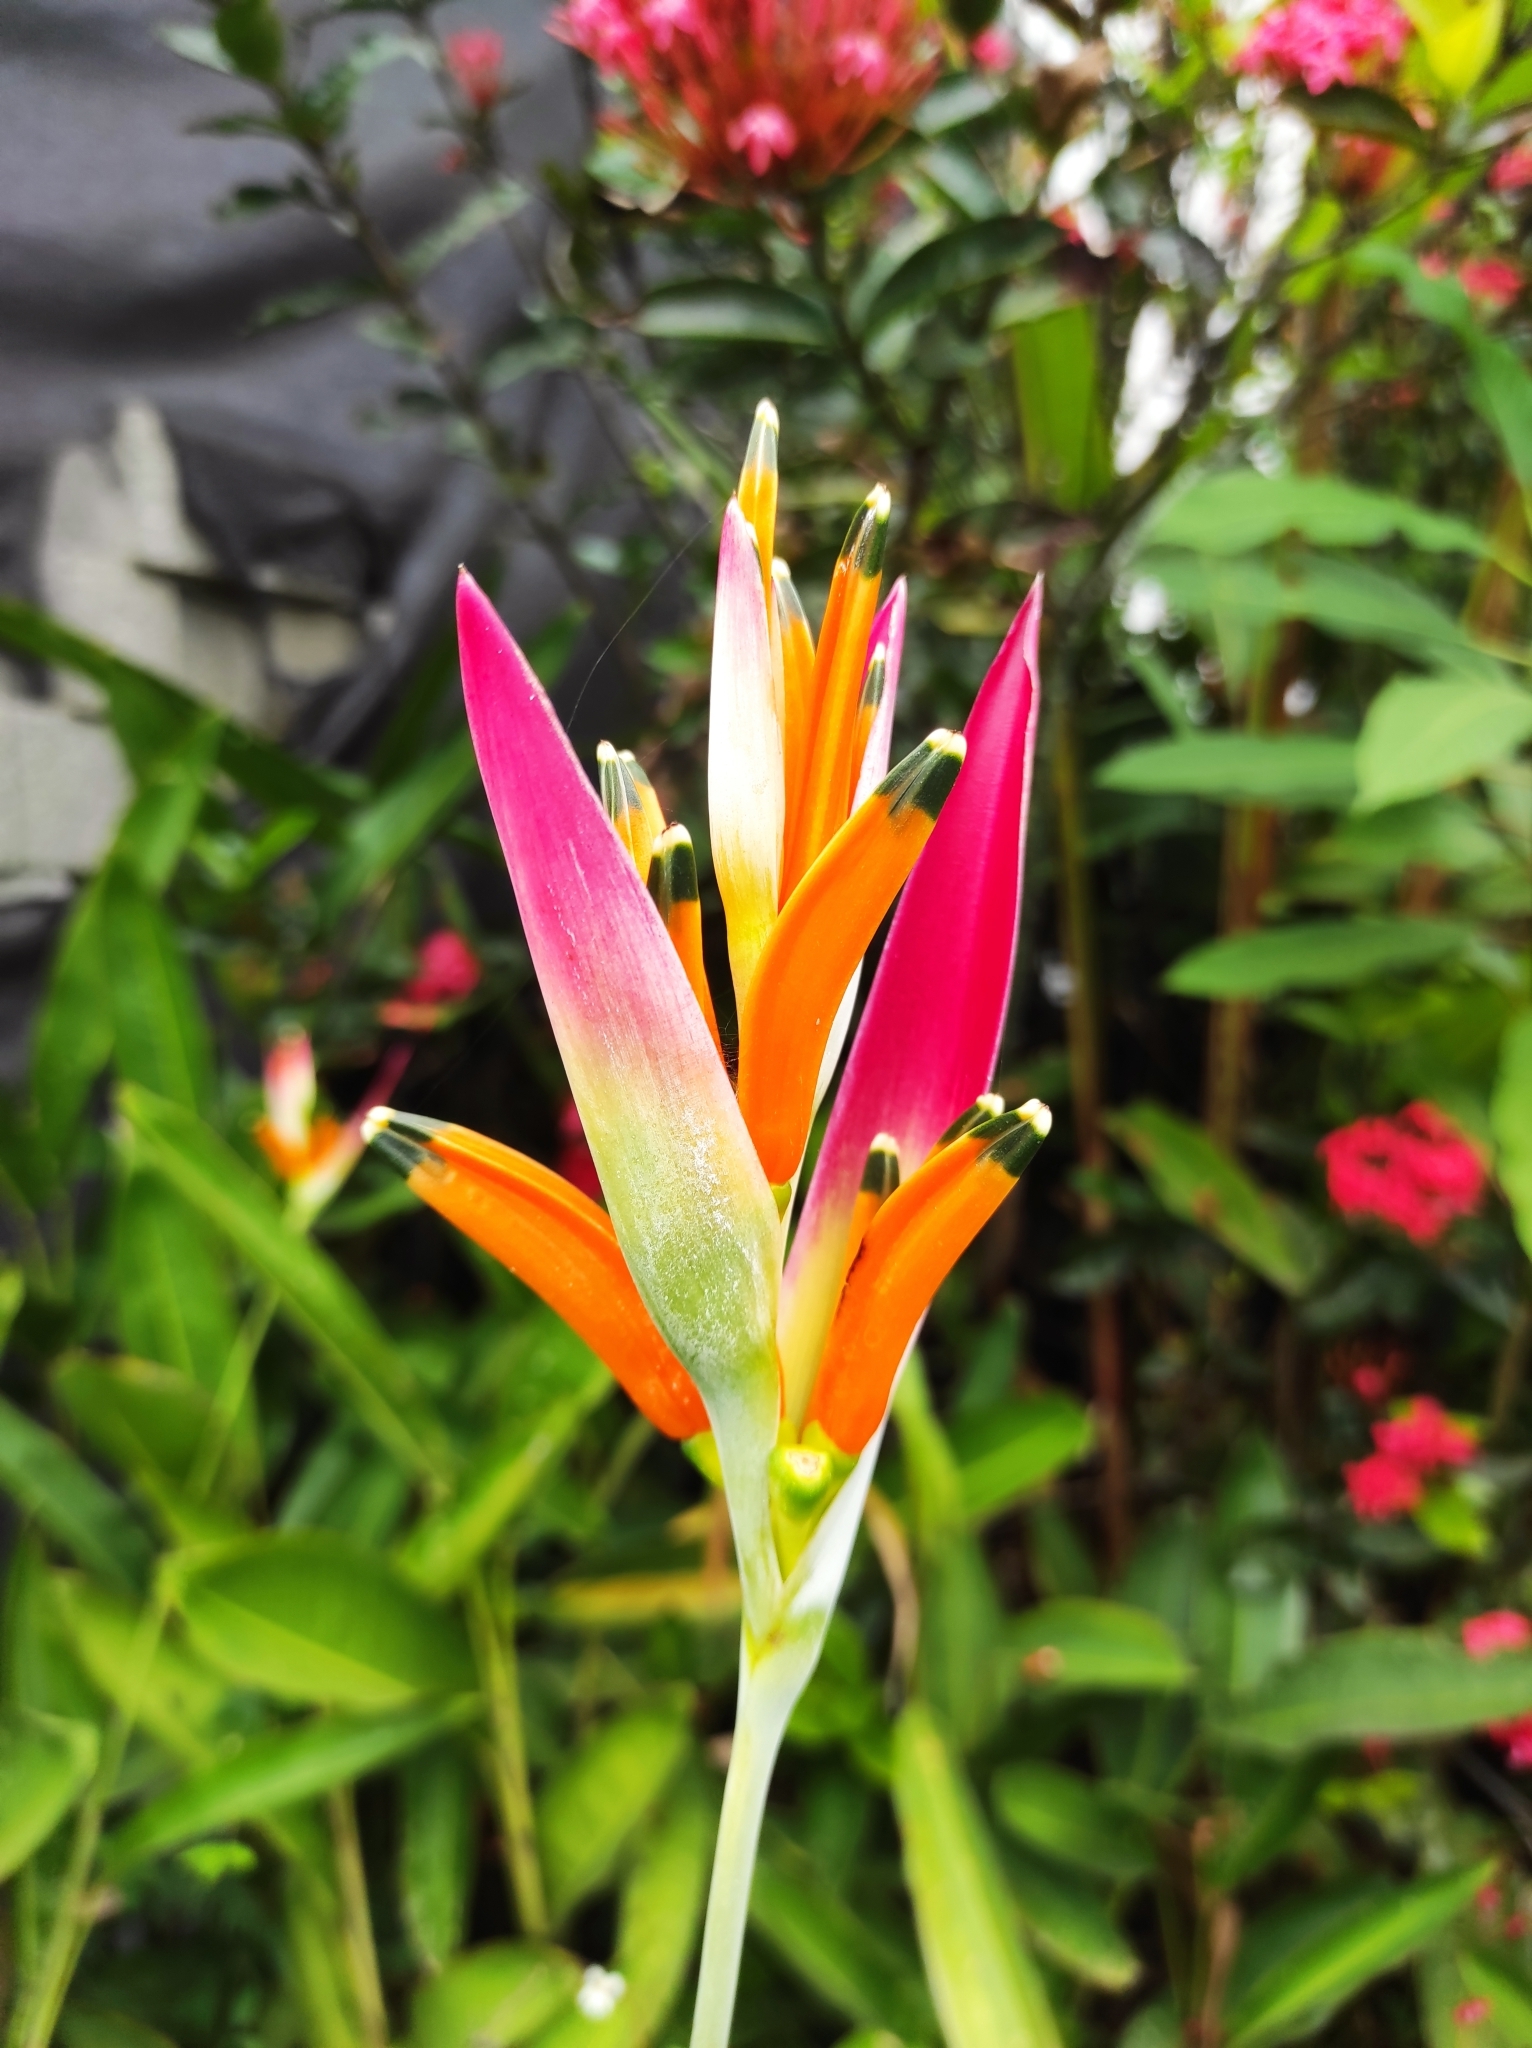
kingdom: Plantae
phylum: Tracheophyta
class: Liliopsida
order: Zingiberales
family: Heliconiaceae
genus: Heliconia
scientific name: Heliconia psittacorum
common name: Parrot's-flower
